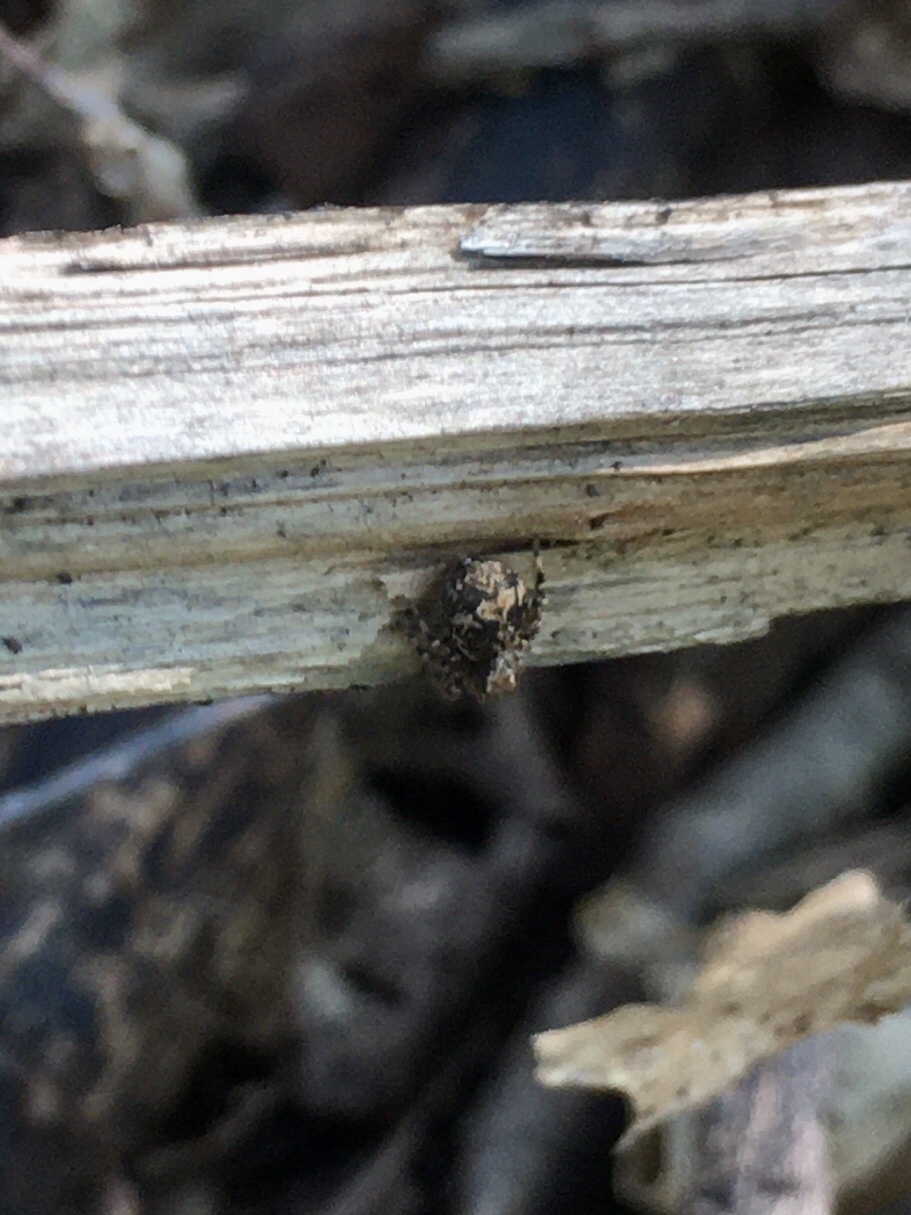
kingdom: Animalia
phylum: Arthropoda
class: Arachnida
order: Araneae
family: Salticidae
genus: Naphrys
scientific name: Naphrys pulex
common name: Flea jumping spider
